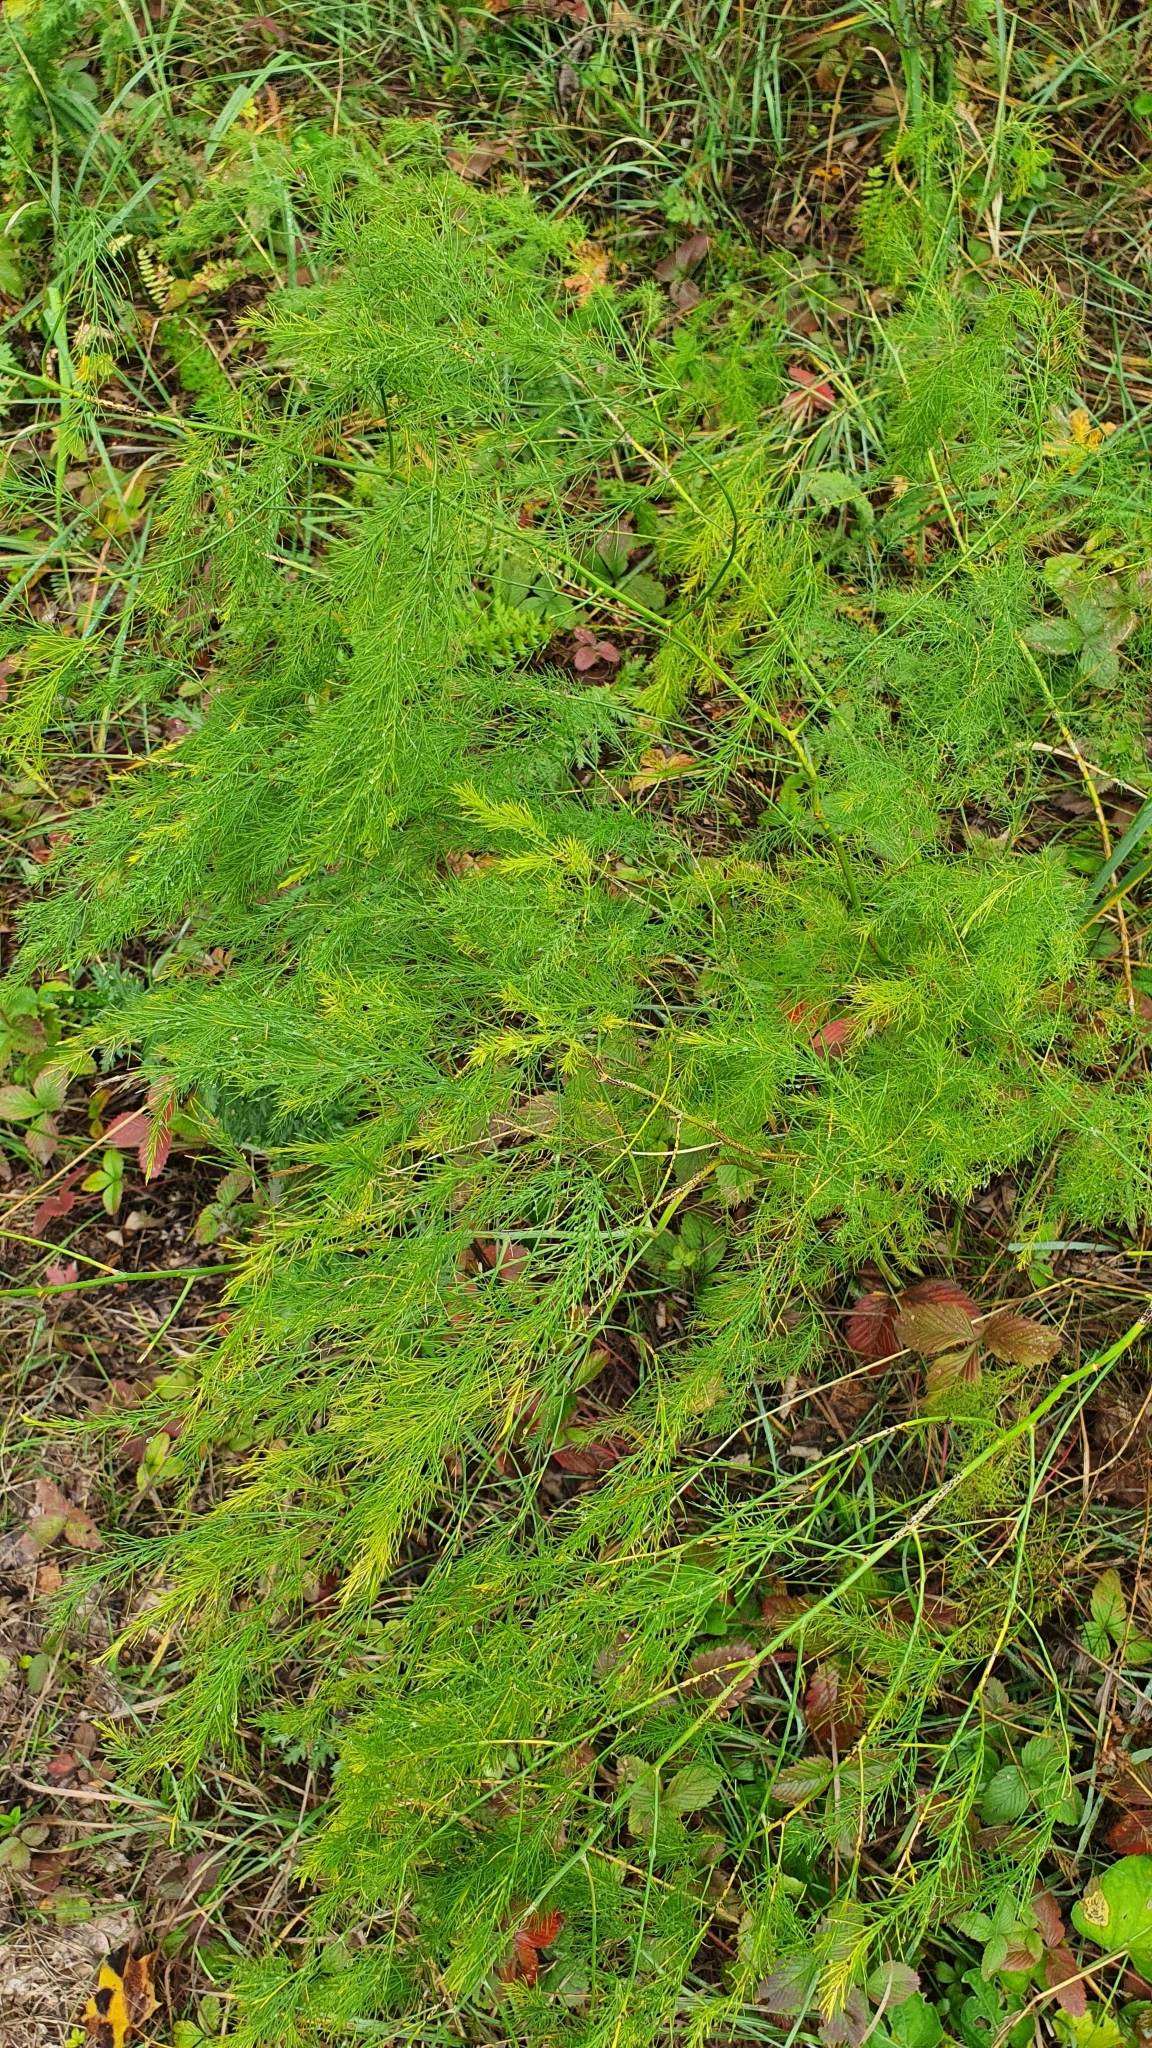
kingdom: Plantae
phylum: Tracheophyta
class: Liliopsida
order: Asparagales
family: Asparagaceae
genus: Asparagus
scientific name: Asparagus officinalis
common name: Garden asparagus
